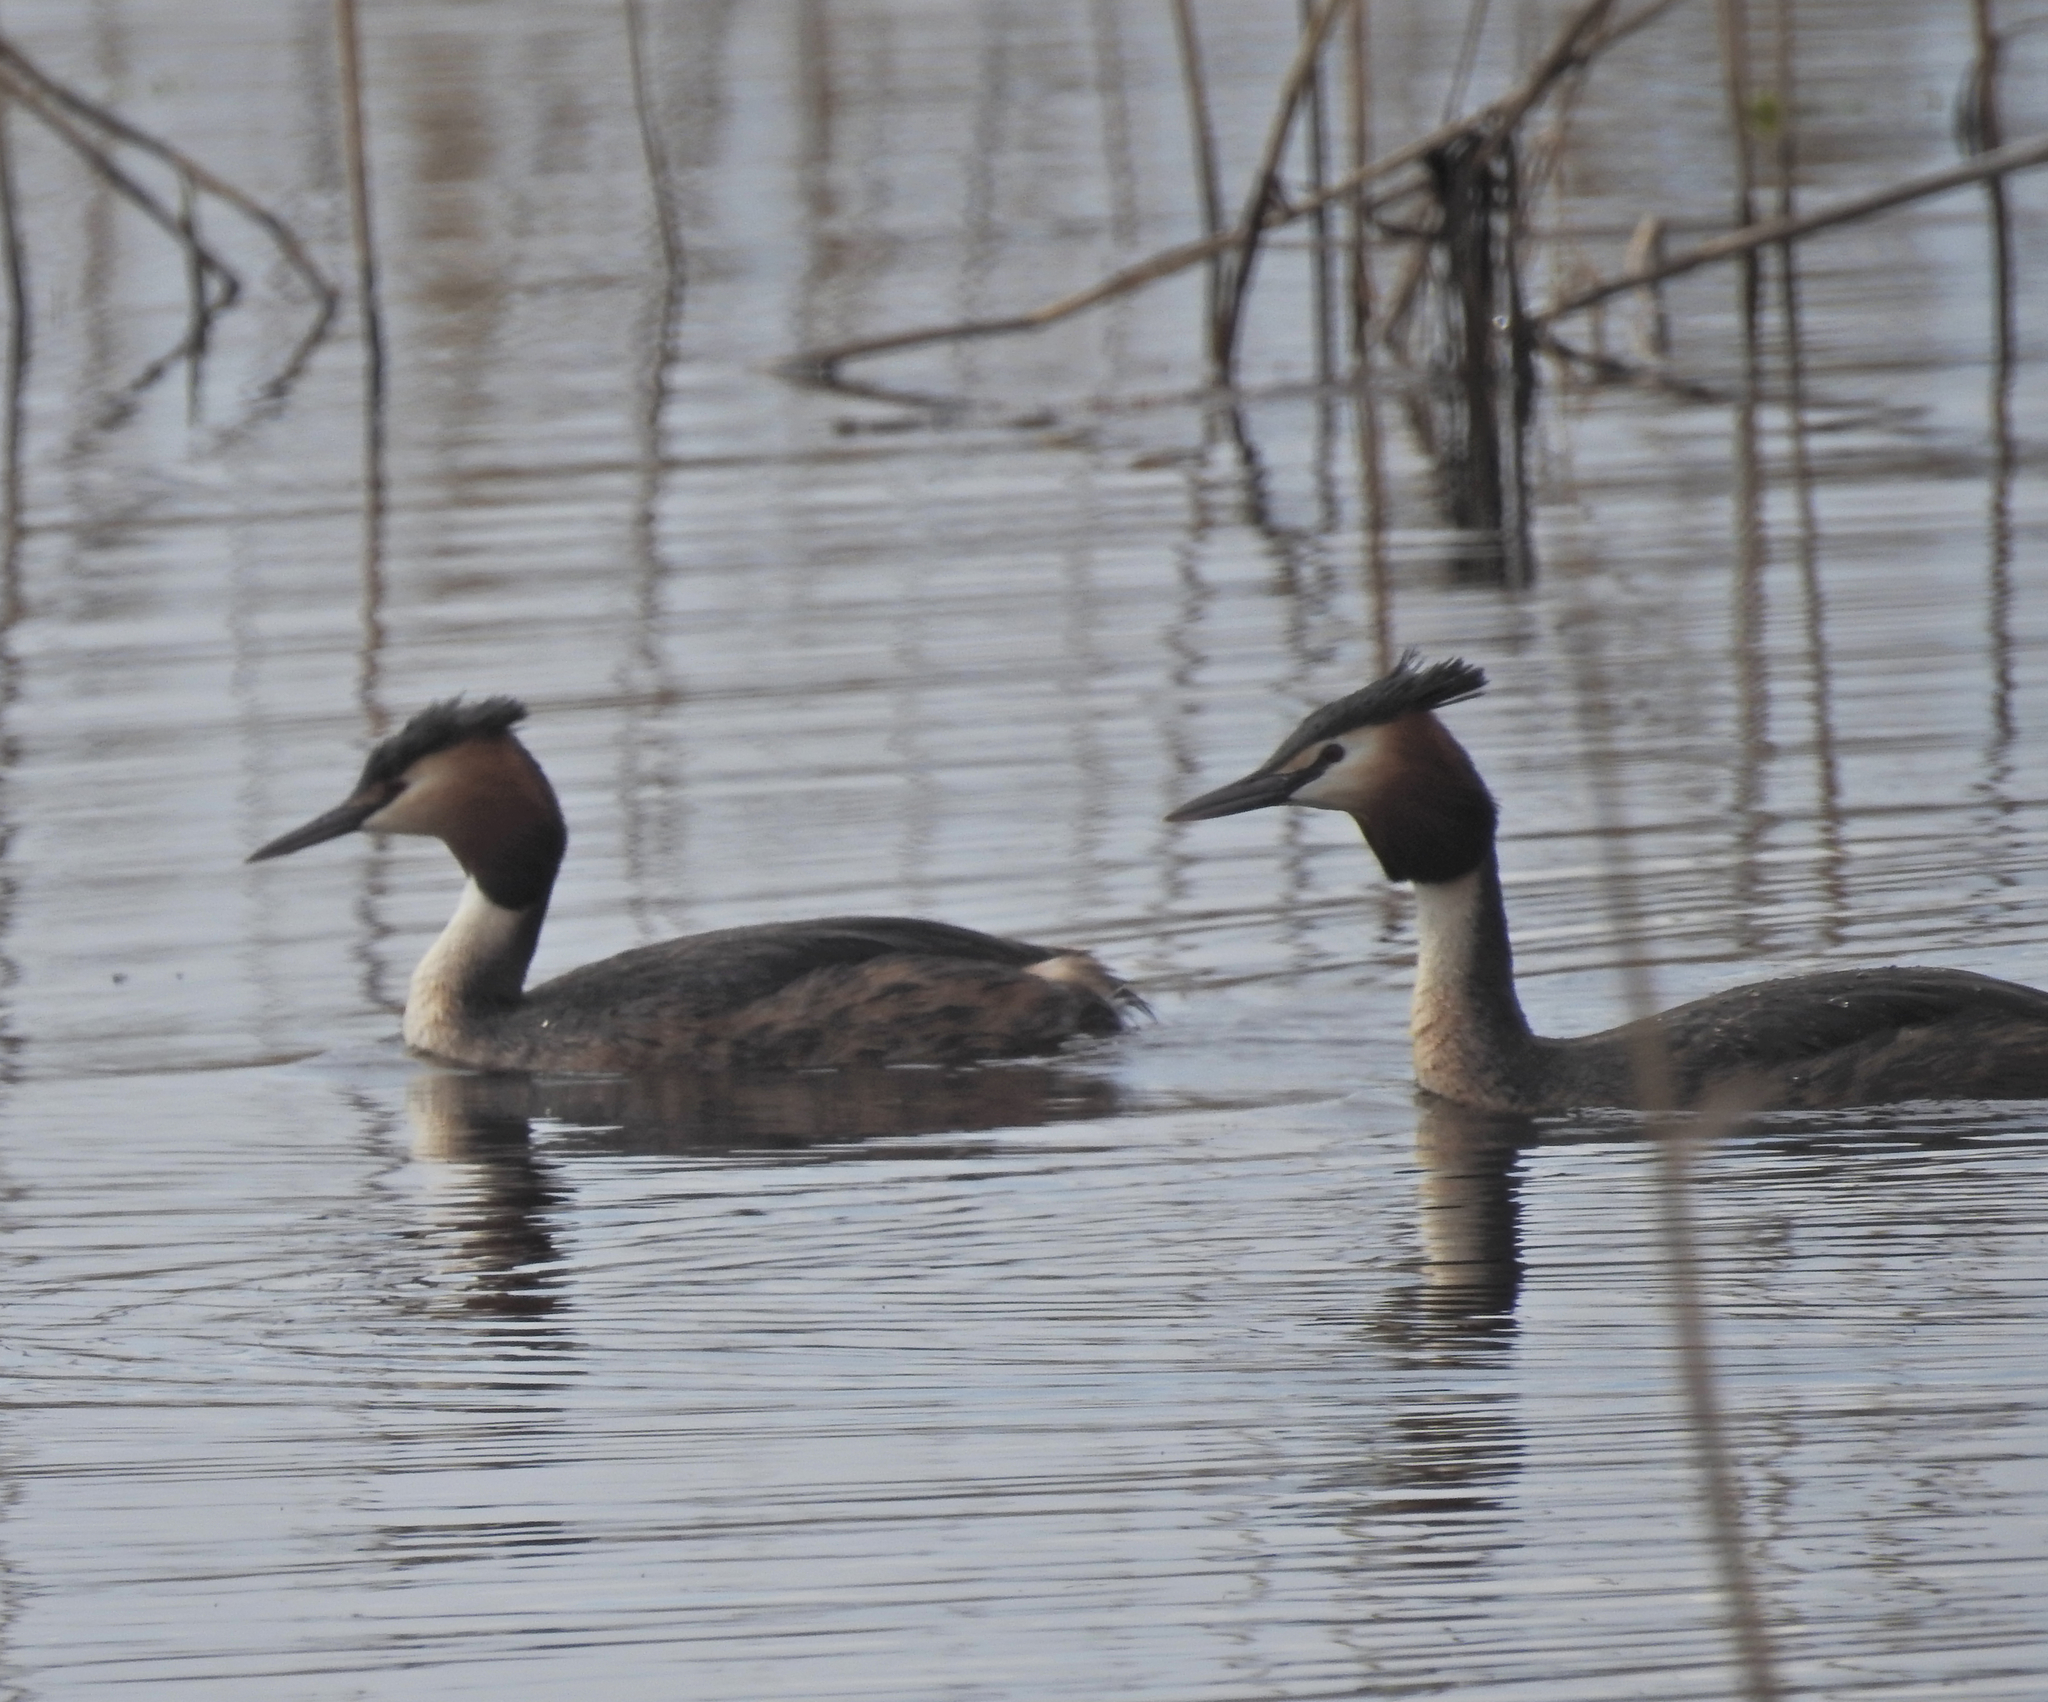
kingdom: Animalia
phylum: Chordata
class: Aves
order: Podicipediformes
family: Podicipedidae
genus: Podiceps
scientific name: Podiceps cristatus
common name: Great crested grebe
